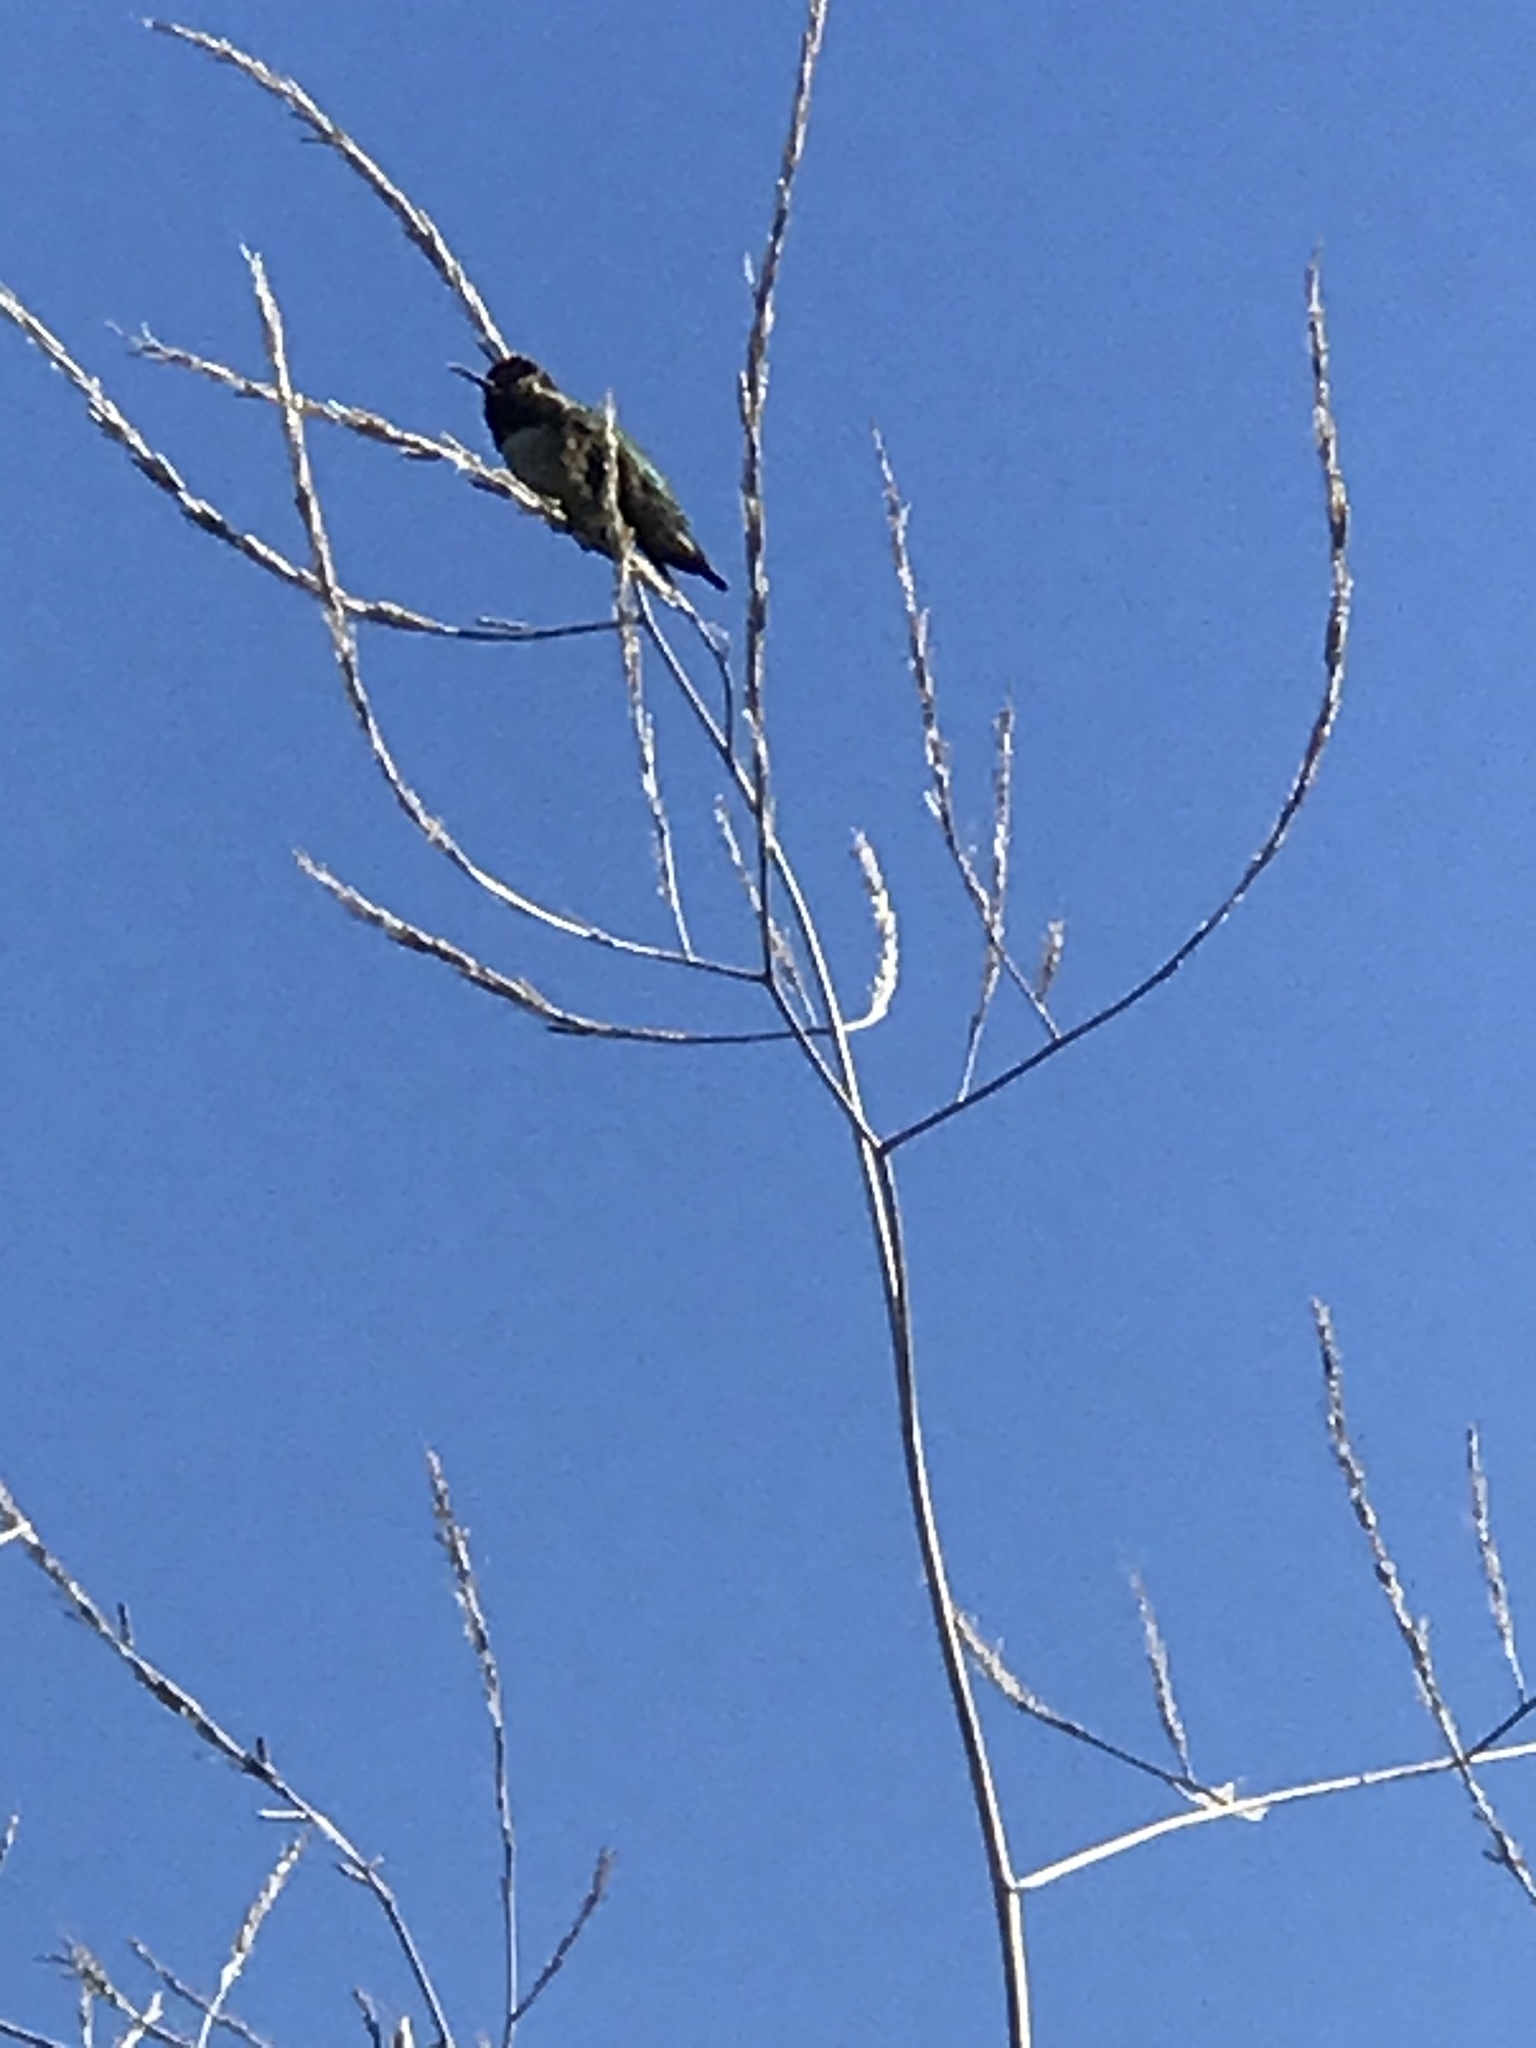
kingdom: Animalia
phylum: Chordata
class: Aves
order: Apodiformes
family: Trochilidae
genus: Calypte
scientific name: Calypte anna
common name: Anna's hummingbird
